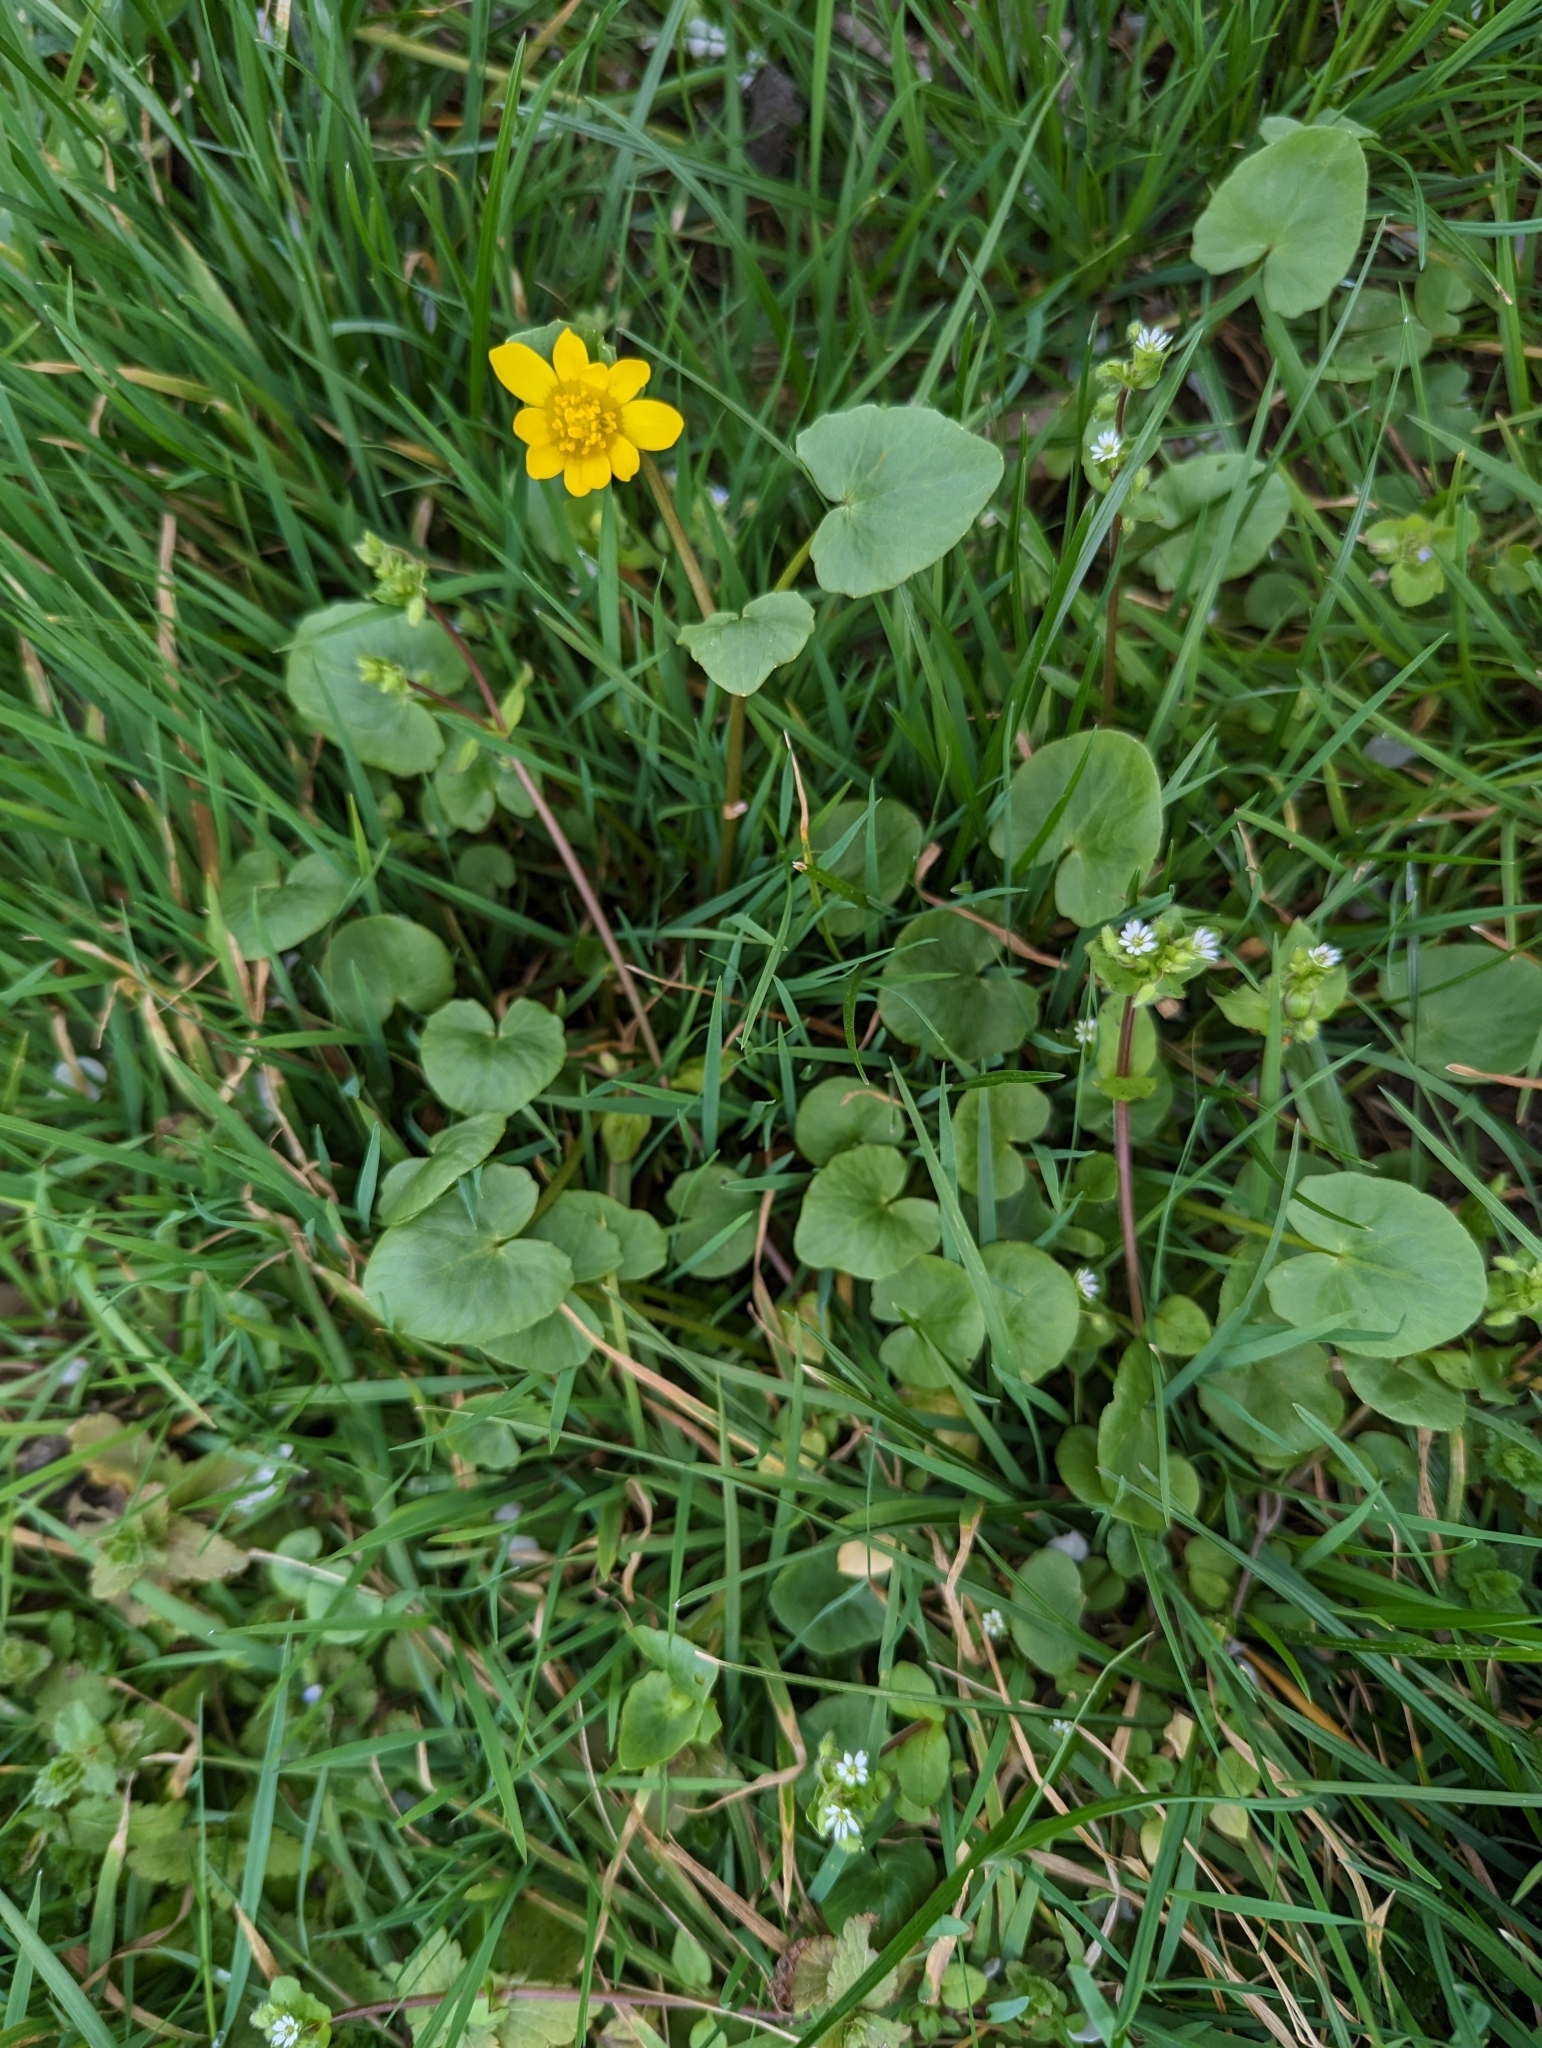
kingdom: Plantae
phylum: Tracheophyta
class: Magnoliopsida
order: Ranunculales
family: Ranunculaceae
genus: Ficaria
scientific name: Ficaria verna
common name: Lesser celandine
